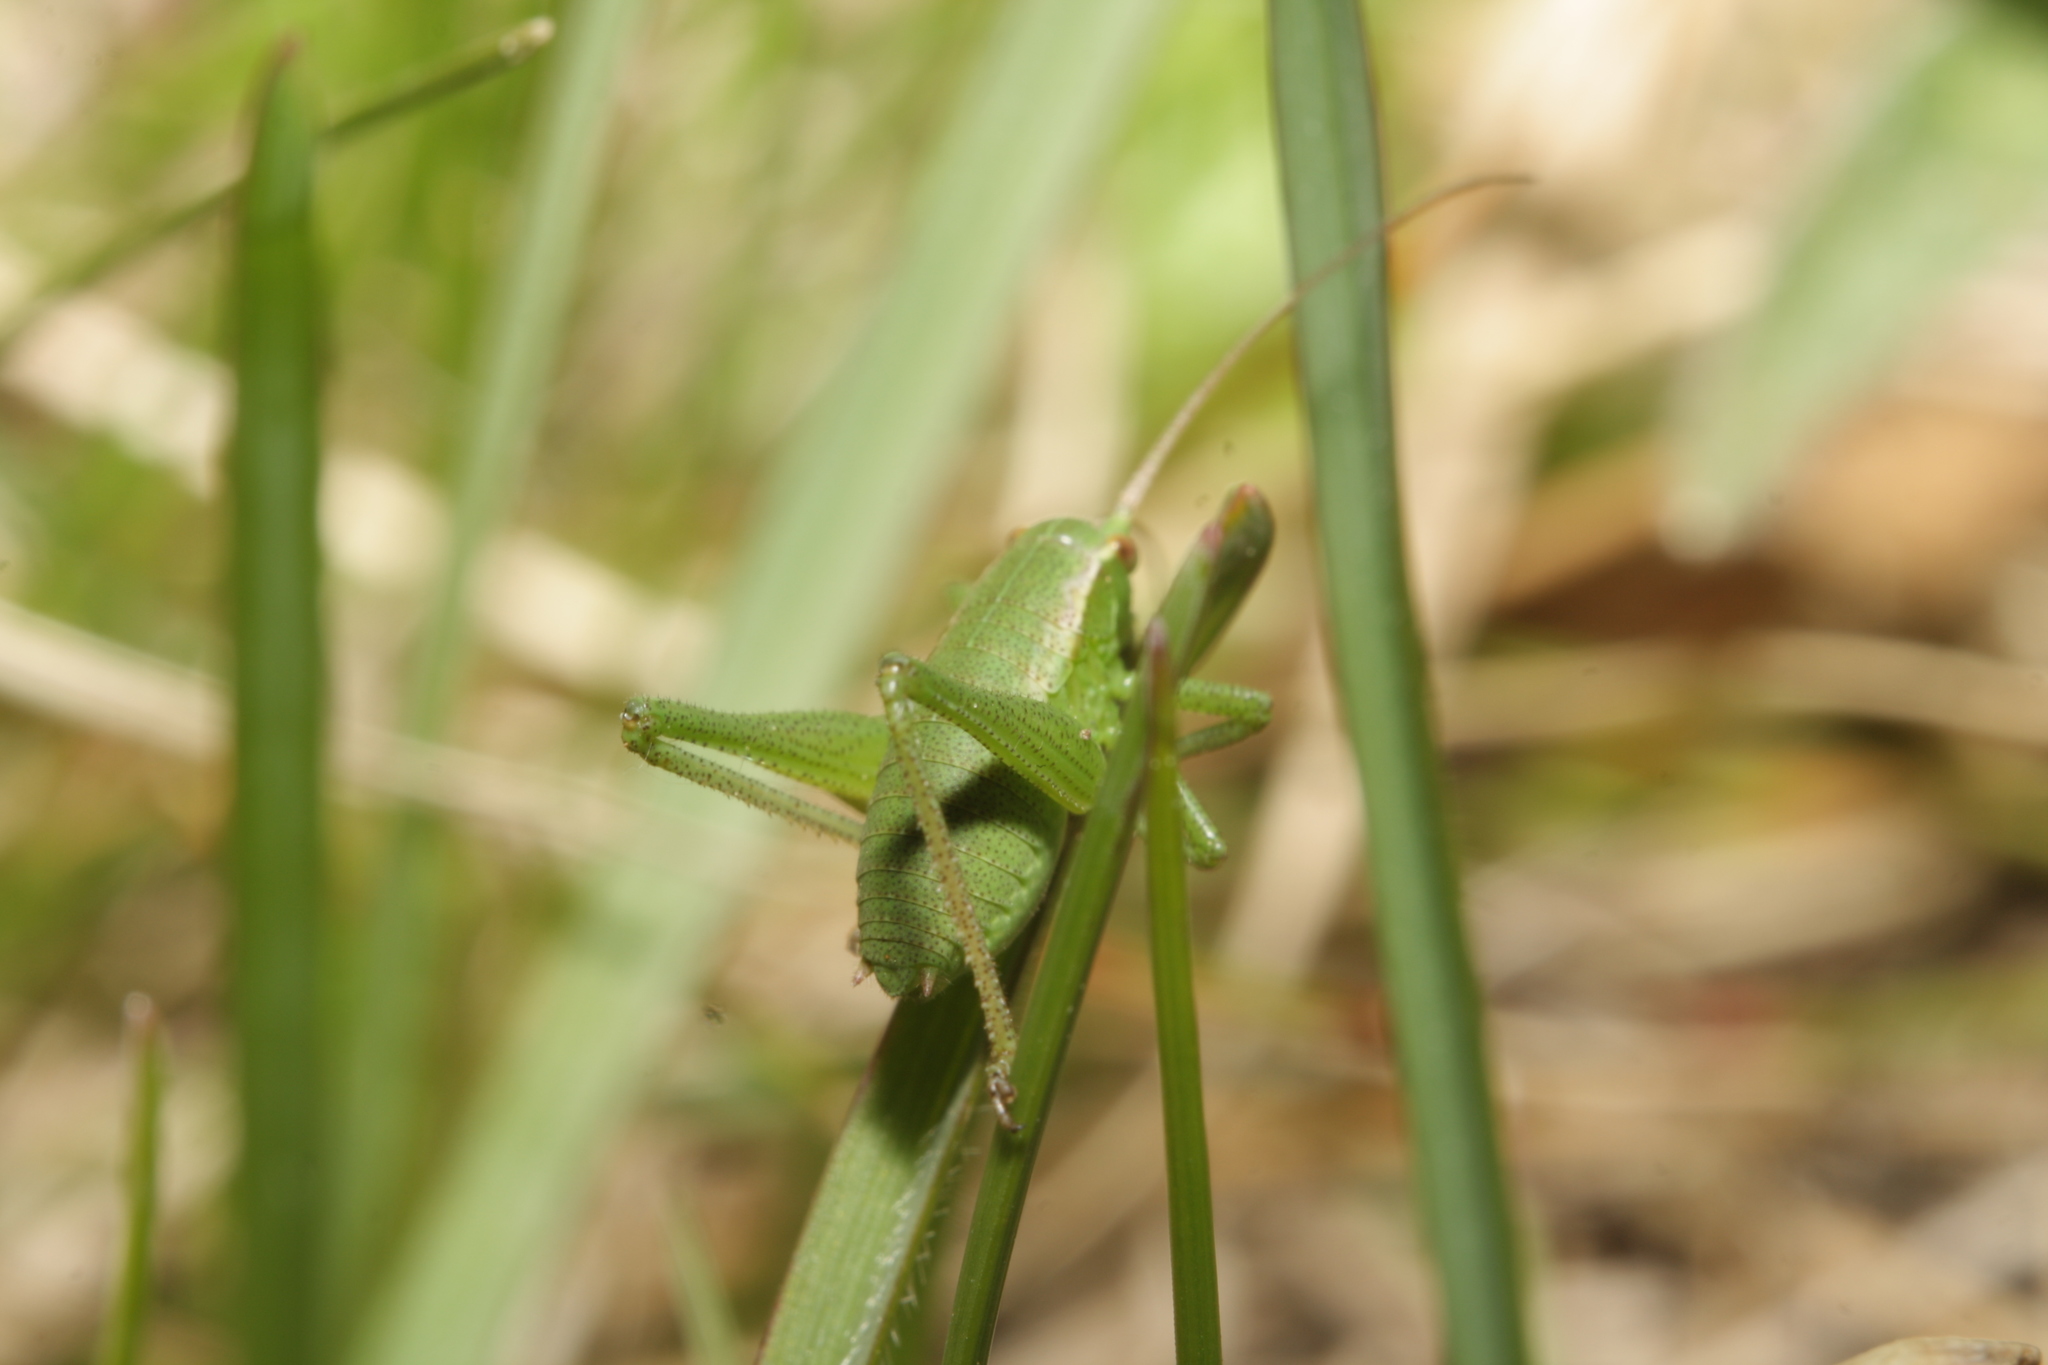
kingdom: Animalia
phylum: Arthropoda
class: Insecta
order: Orthoptera
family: Tettigoniidae
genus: Isophya
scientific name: Isophya camptoxypha
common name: Curve-tailed plump bush-cricket
